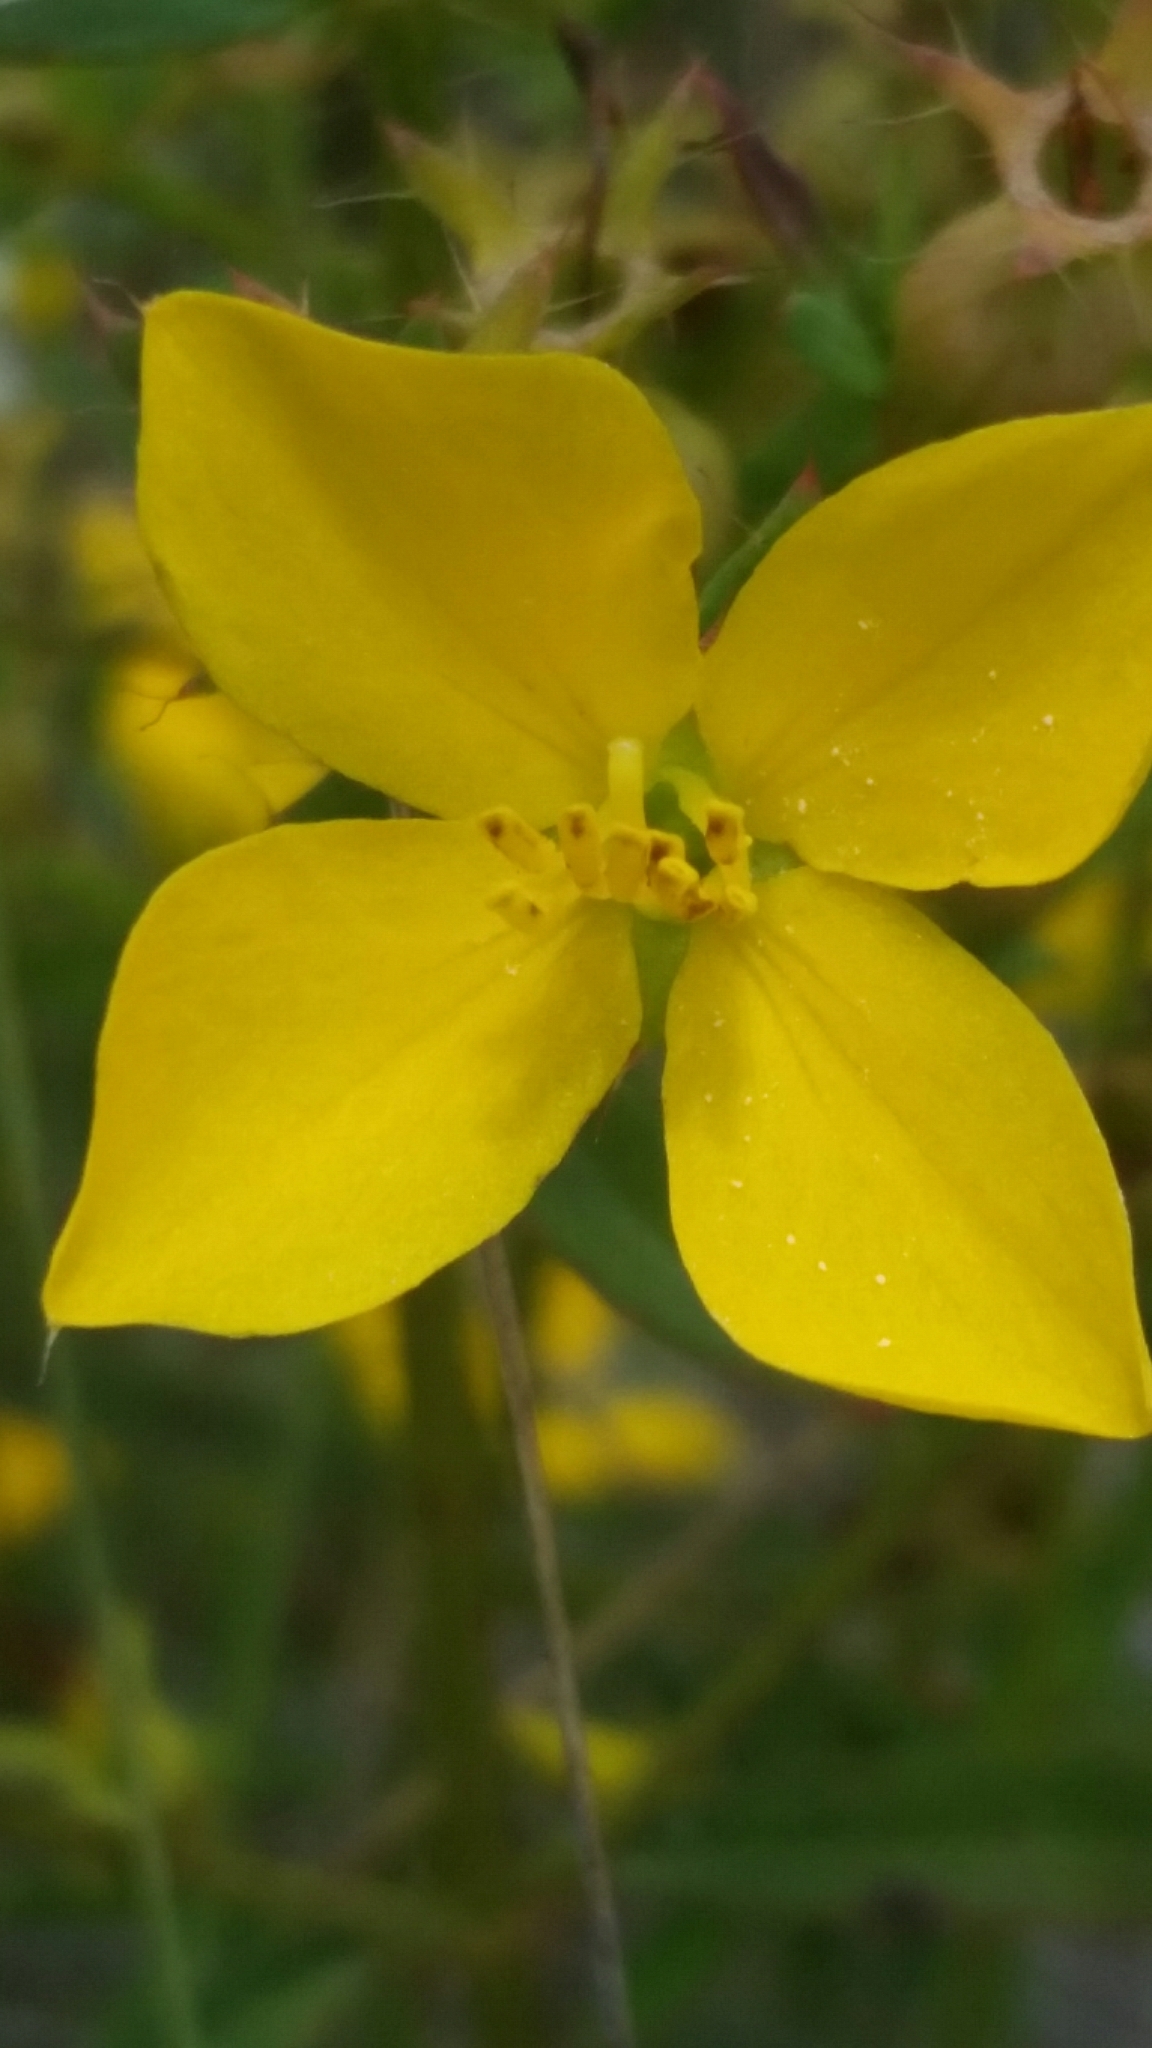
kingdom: Plantae
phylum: Tracheophyta
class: Magnoliopsida
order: Myrtales
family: Melastomataceae
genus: Rhexia
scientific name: Rhexia lutea
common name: Golden meadow-beauty
